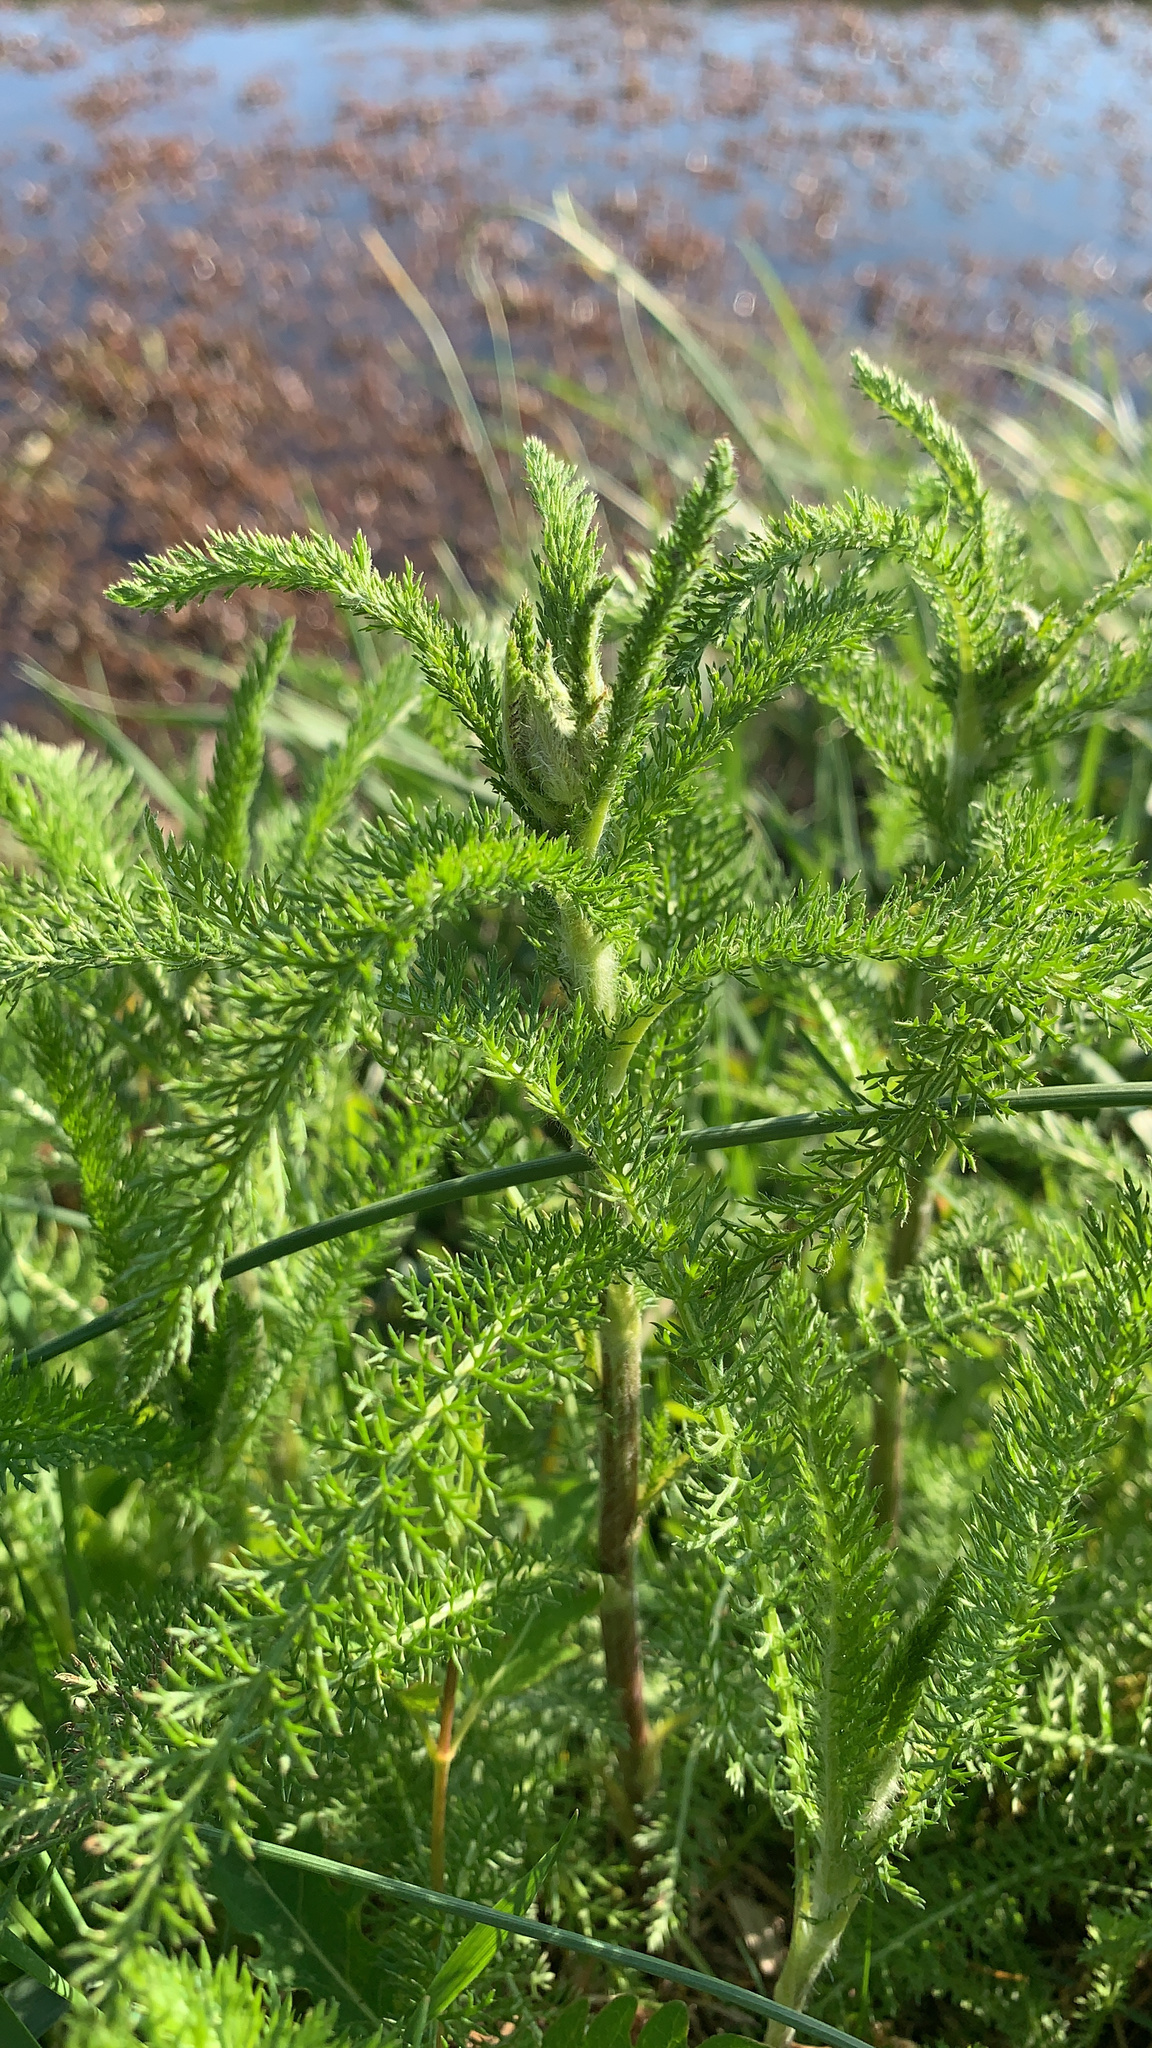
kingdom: Plantae
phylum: Tracheophyta
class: Magnoliopsida
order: Asterales
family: Asteraceae
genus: Achillea
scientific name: Achillea millefolium
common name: Yarrow
